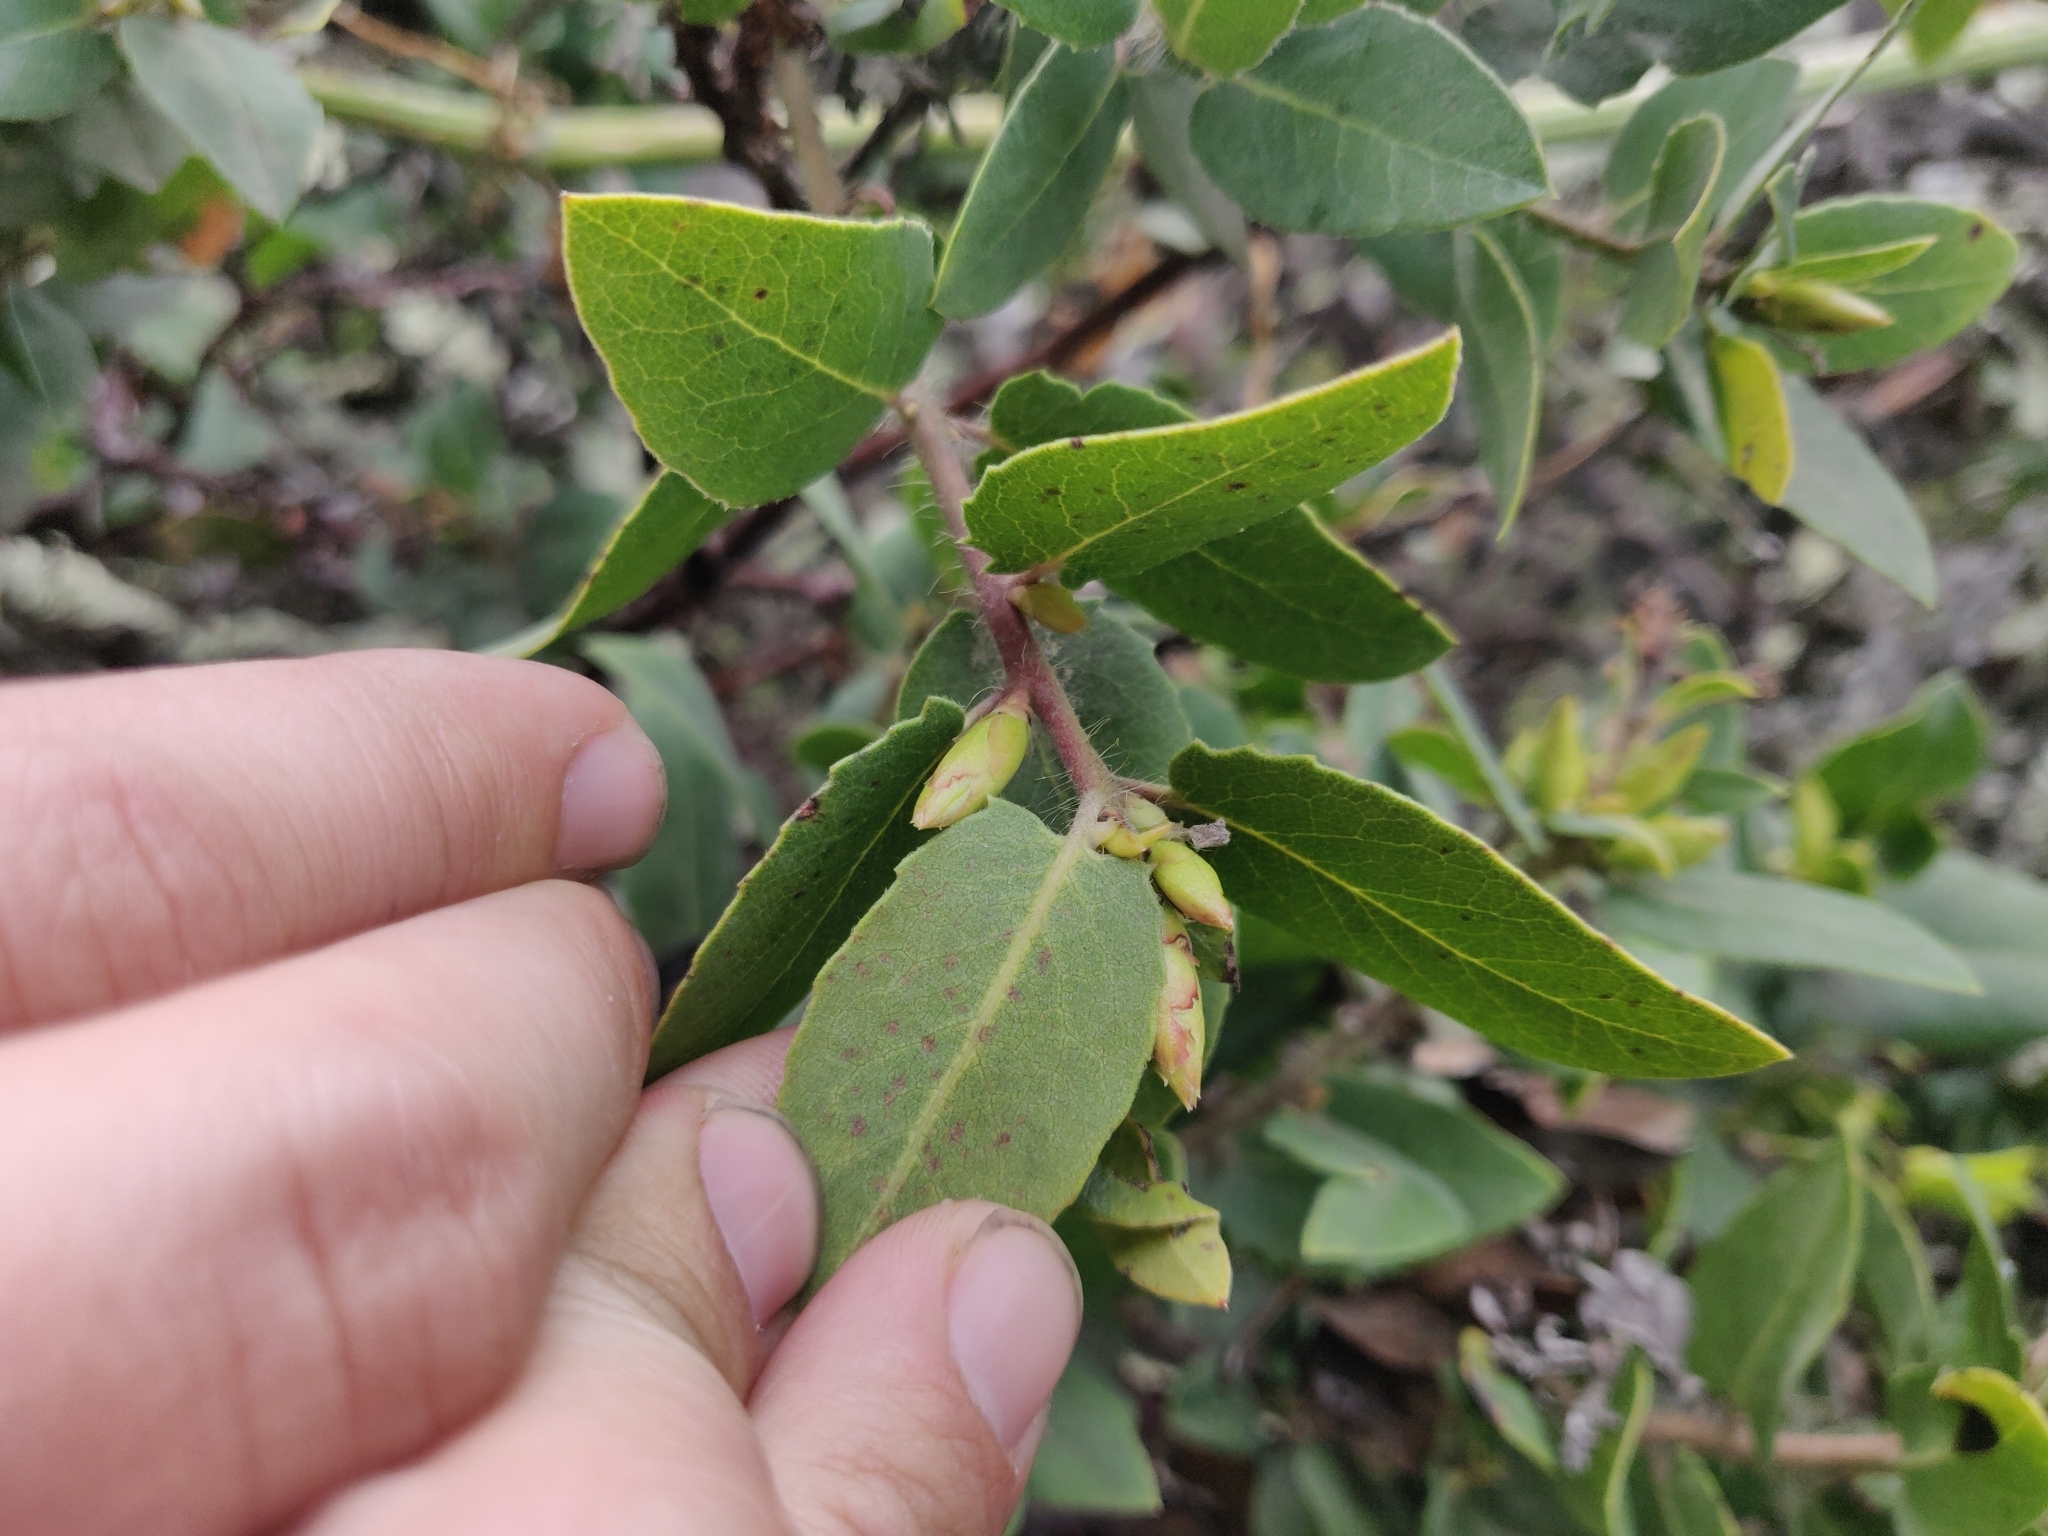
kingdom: Plantae
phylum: Tracheophyta
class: Magnoliopsida
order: Ericales
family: Ericaceae
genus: Arctostaphylos
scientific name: Arctostaphylos crustacea
